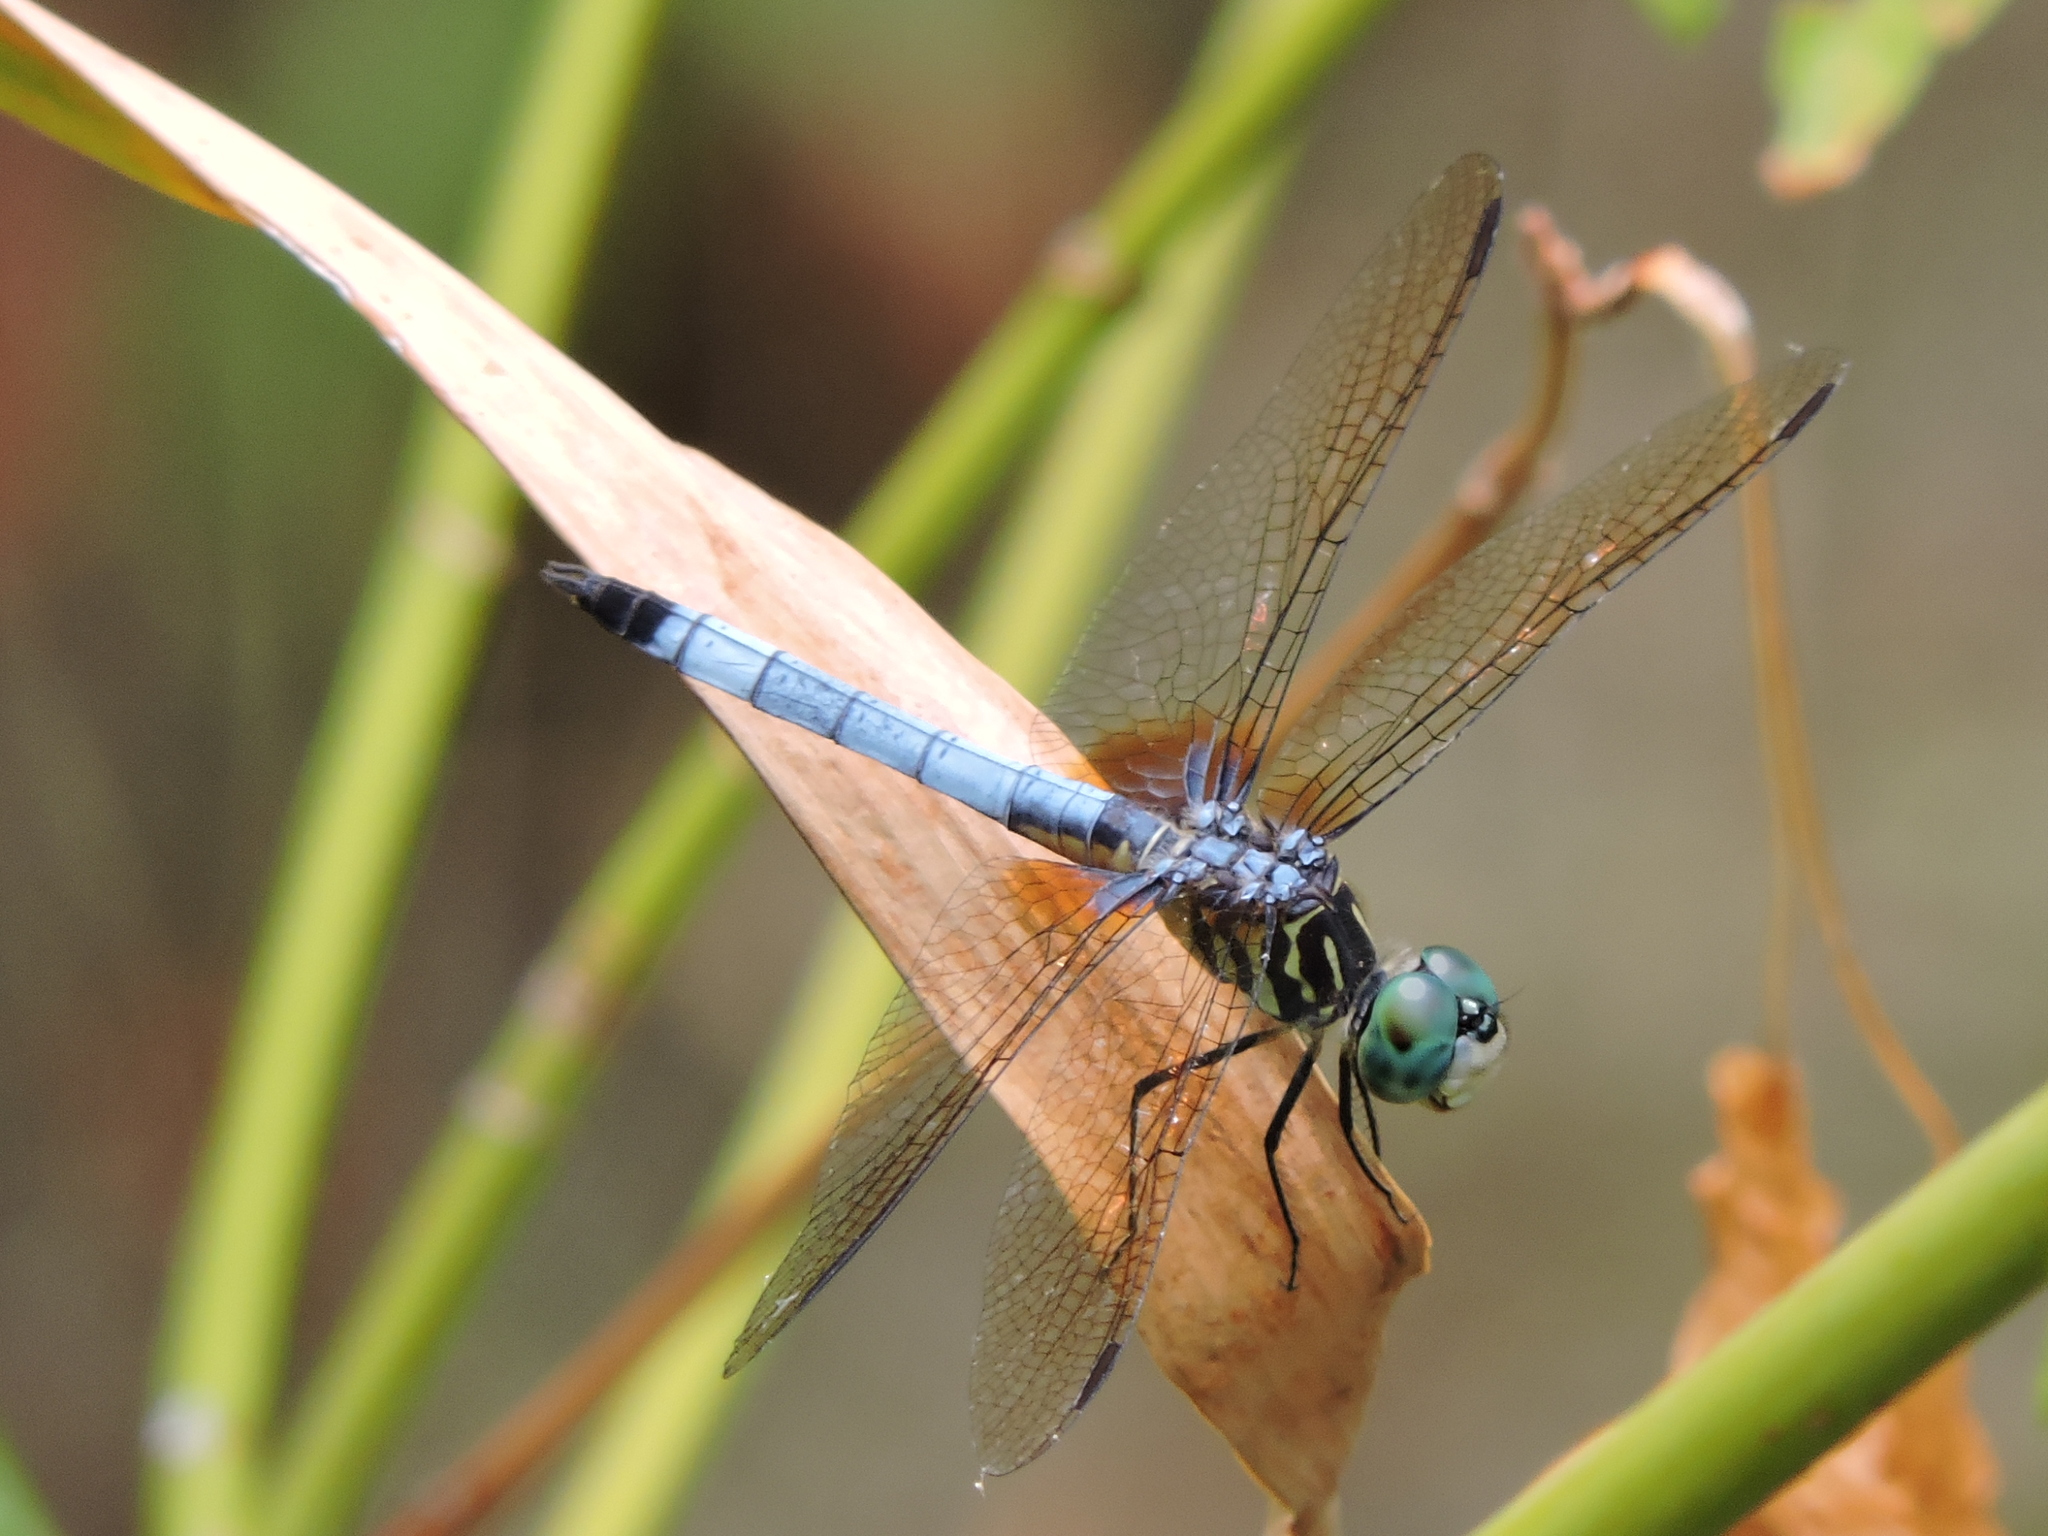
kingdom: Animalia
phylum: Arthropoda
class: Insecta
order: Odonata
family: Libellulidae
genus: Pachydiplax
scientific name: Pachydiplax longipennis
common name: Blue dasher
